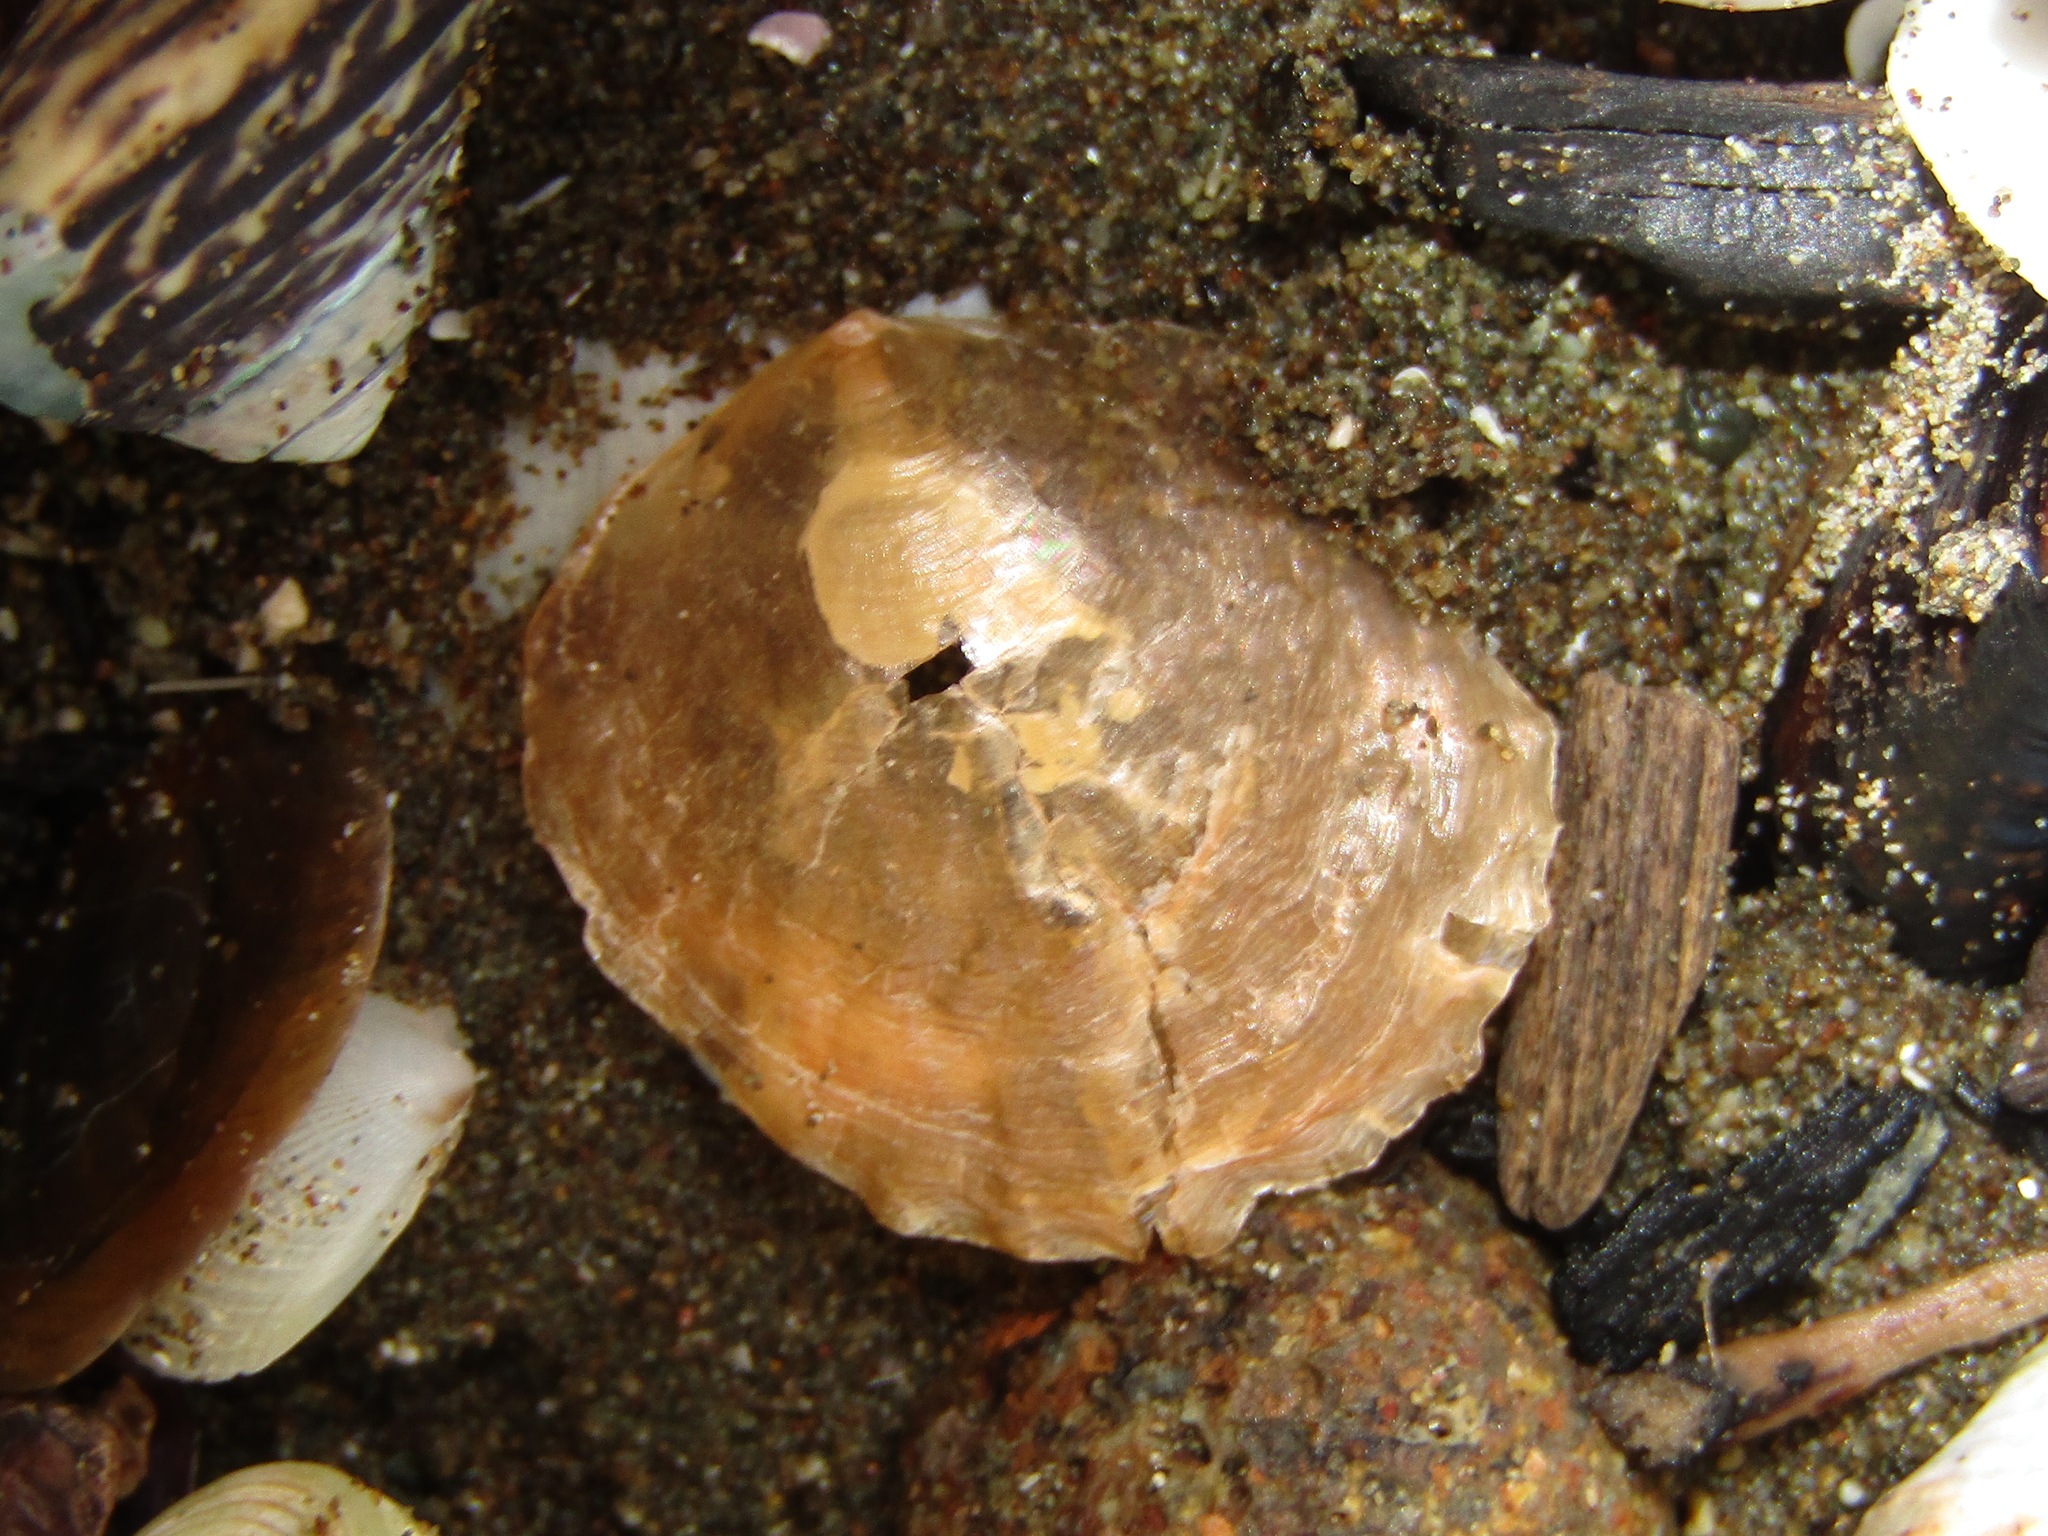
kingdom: Animalia
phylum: Mollusca
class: Bivalvia
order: Pectinida
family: Anomiidae
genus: Anomia
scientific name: Anomia trigonopsis
